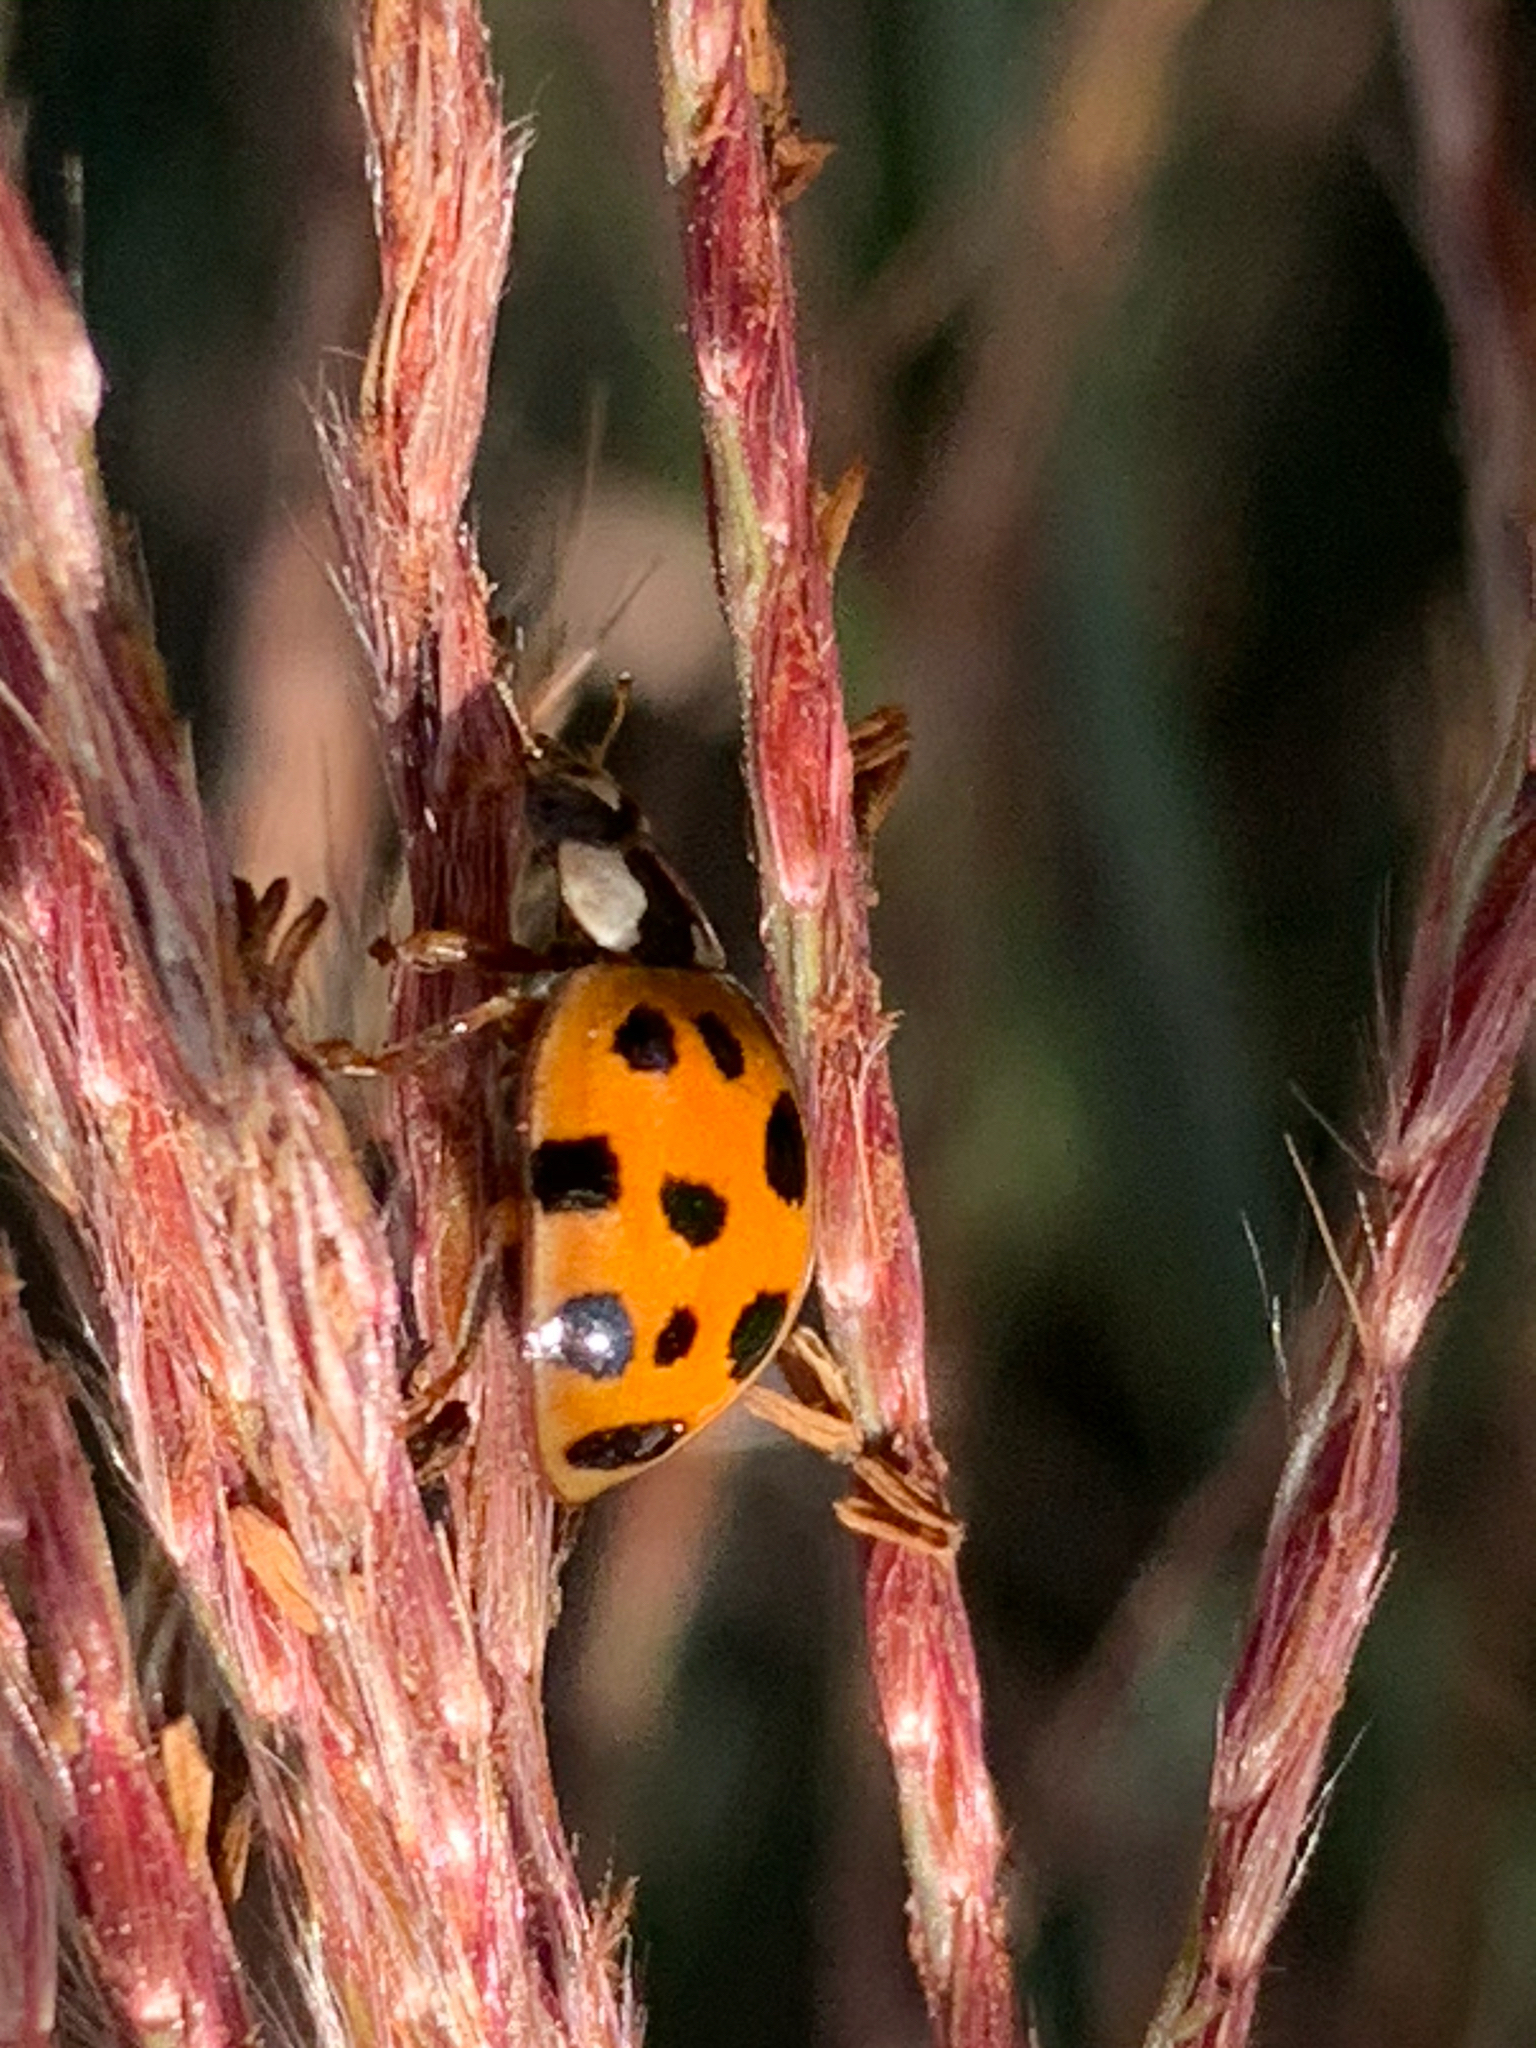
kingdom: Animalia
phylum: Arthropoda
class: Insecta
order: Coleoptera
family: Coccinellidae
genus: Harmonia
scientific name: Harmonia axyridis
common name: Harlequin ladybird
